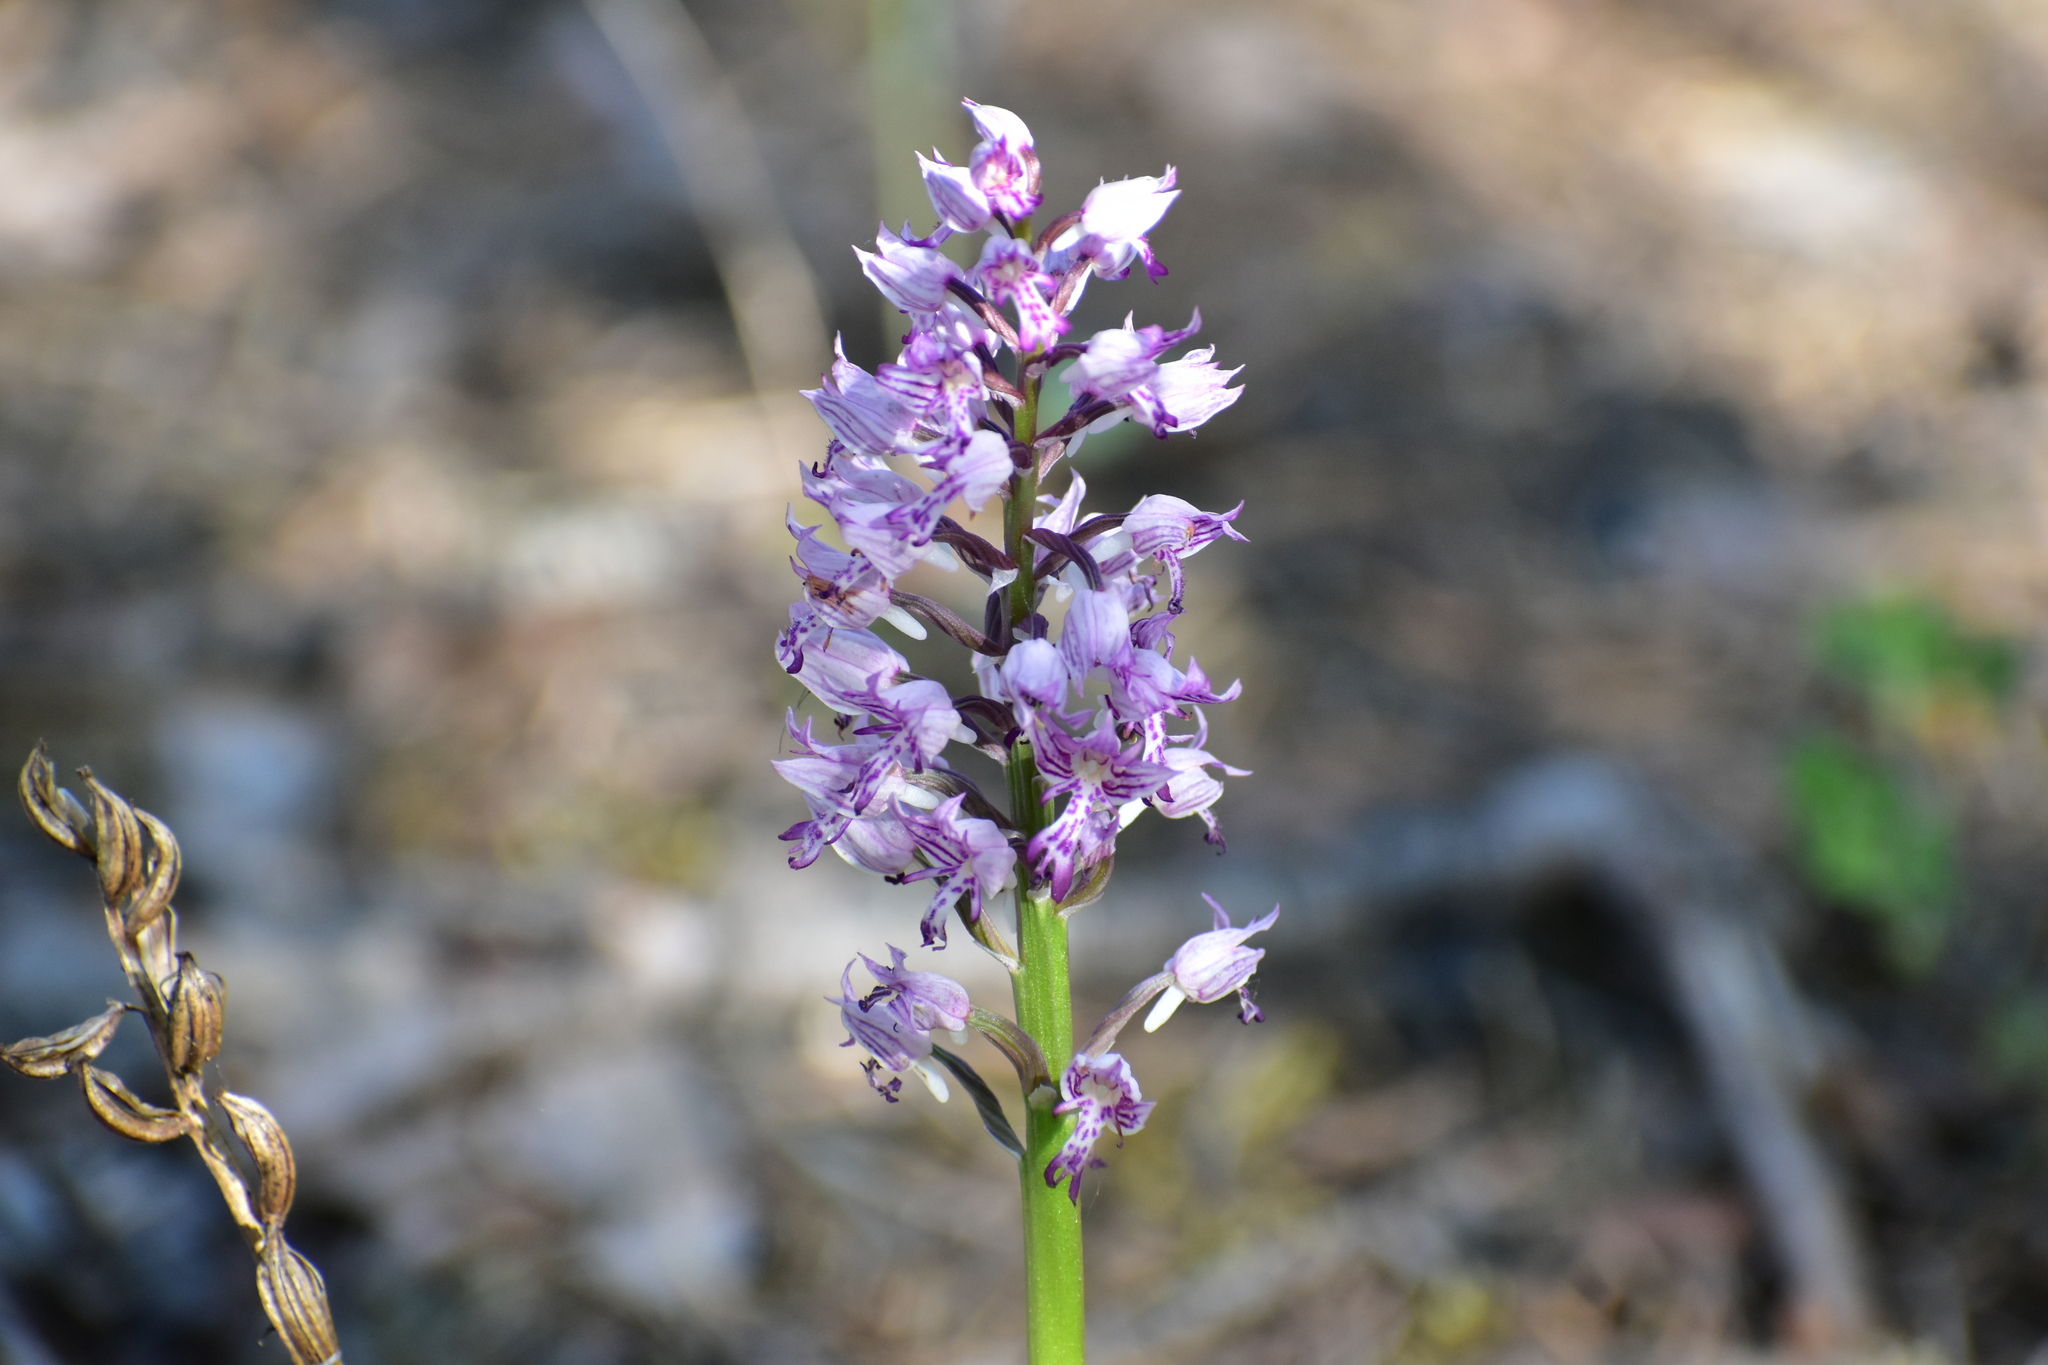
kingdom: Plantae
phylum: Tracheophyta
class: Liliopsida
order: Asparagales
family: Orchidaceae
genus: Orchis
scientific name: Orchis militaris
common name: Military orchid
